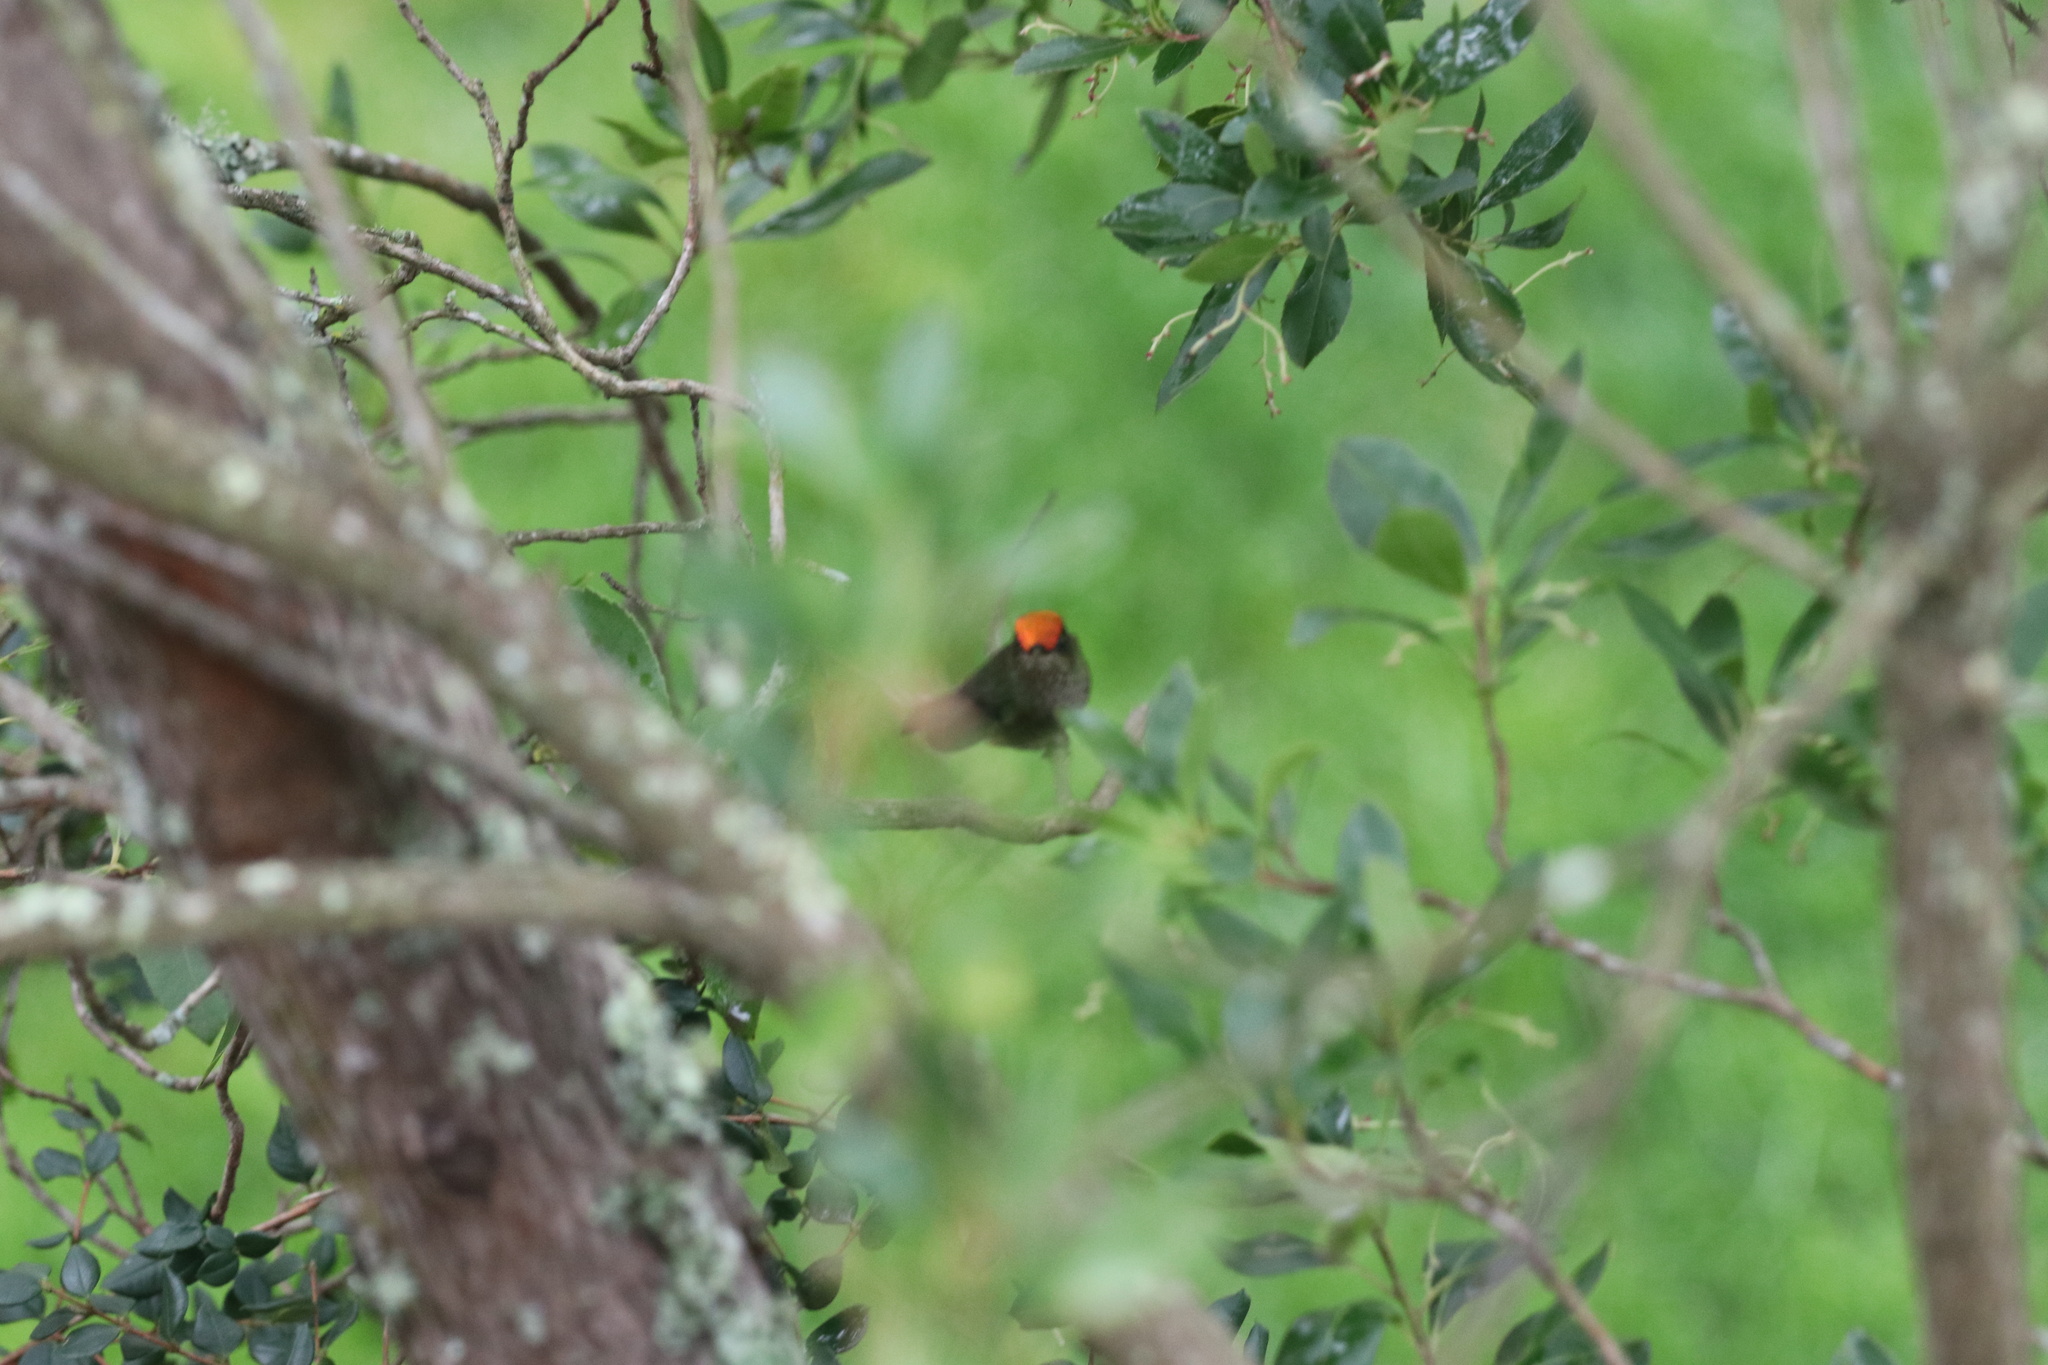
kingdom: Animalia
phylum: Chordata
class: Aves
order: Apodiformes
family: Trochilidae
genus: Sephanoides
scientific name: Sephanoides sephaniodes
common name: Green-backed firecrown
